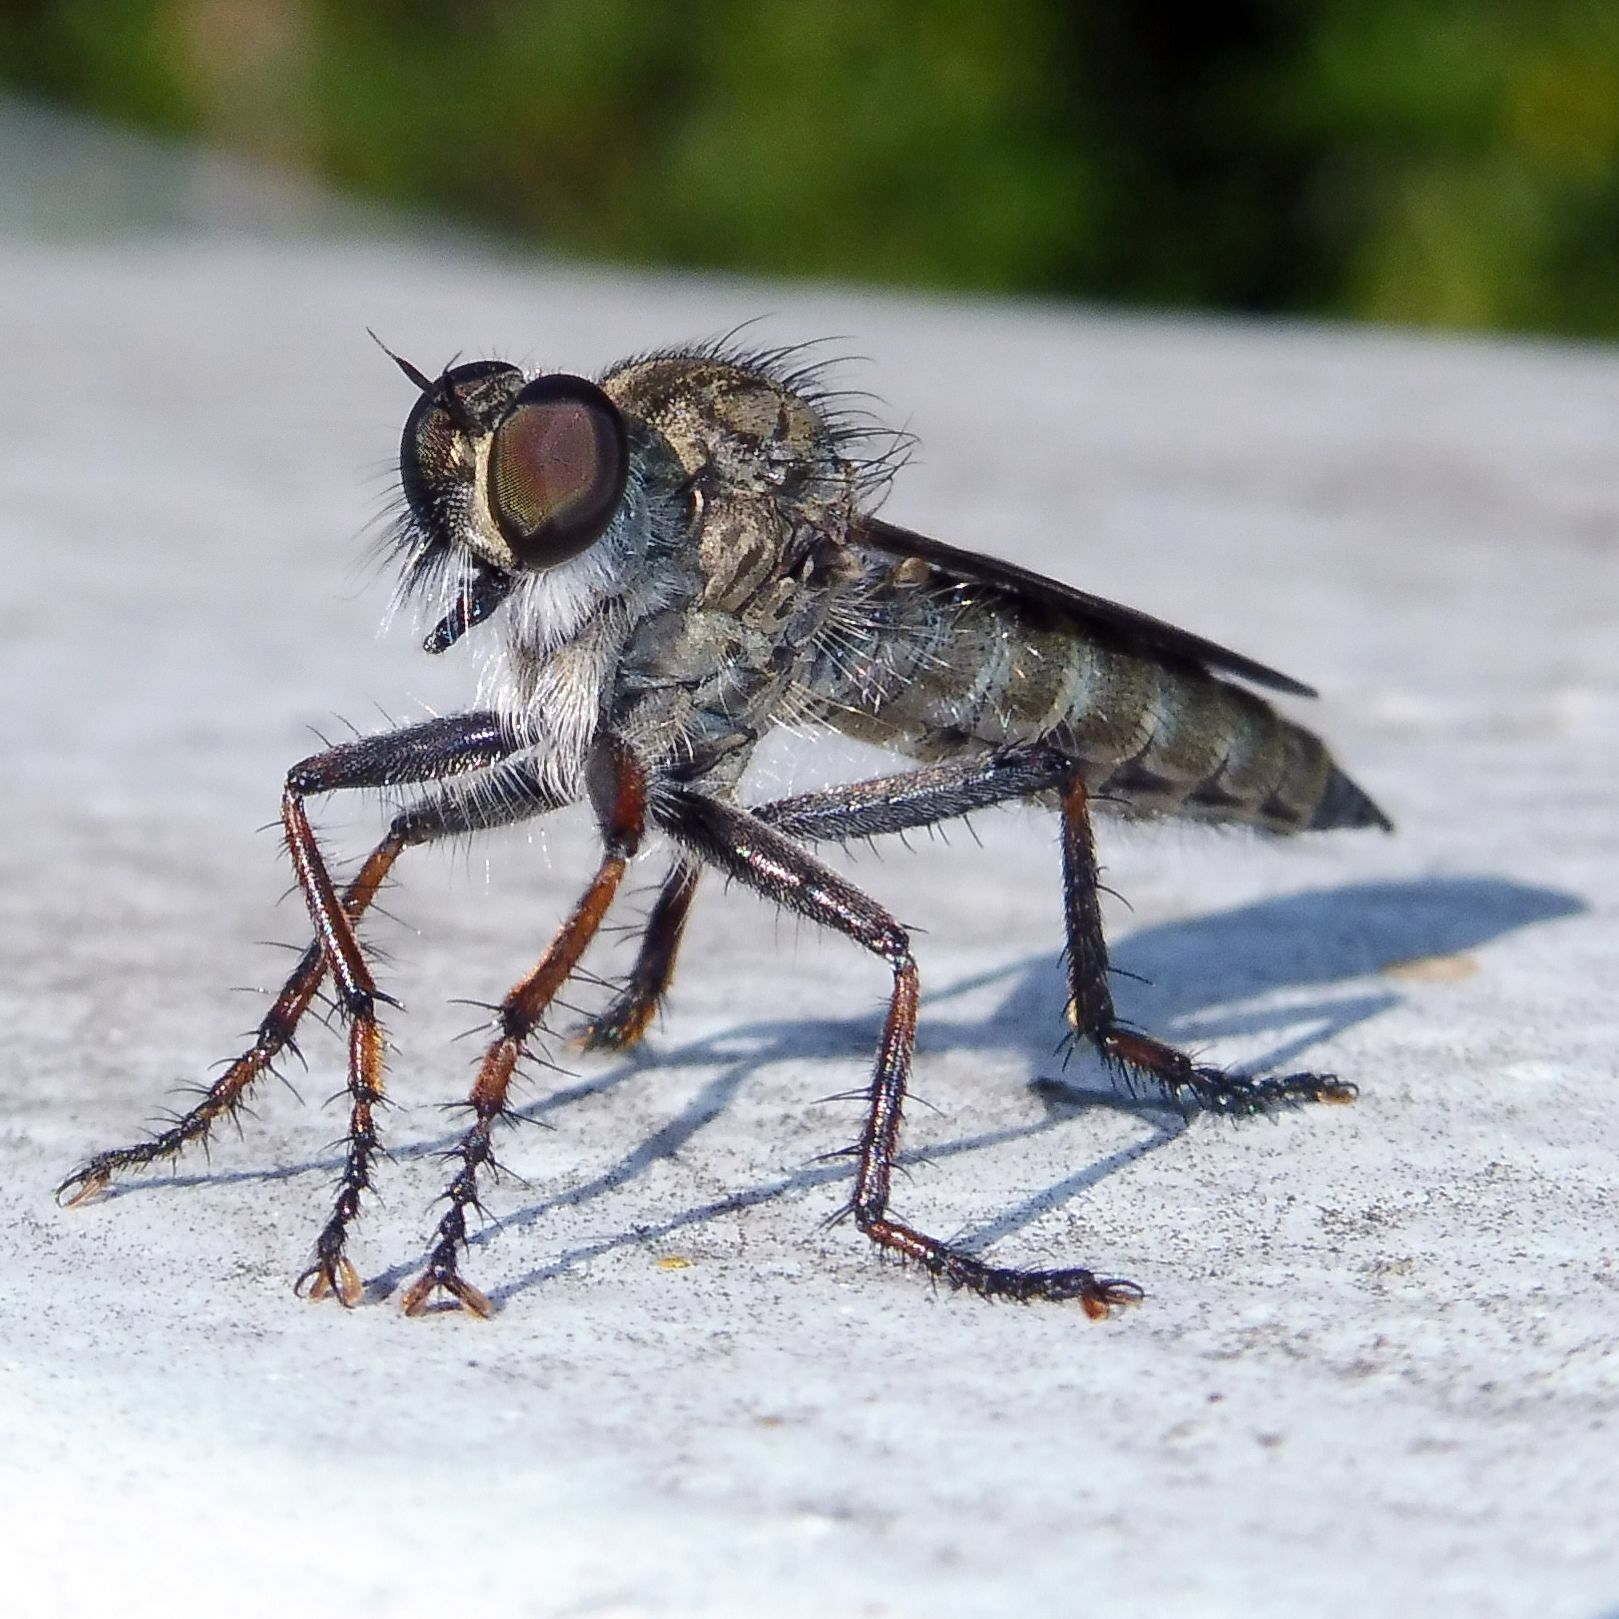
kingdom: Animalia
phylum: Arthropoda
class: Insecta
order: Diptera
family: Asilidae
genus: Machimus
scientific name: Machimus atricapillus
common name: Kite-tailed robberfly
